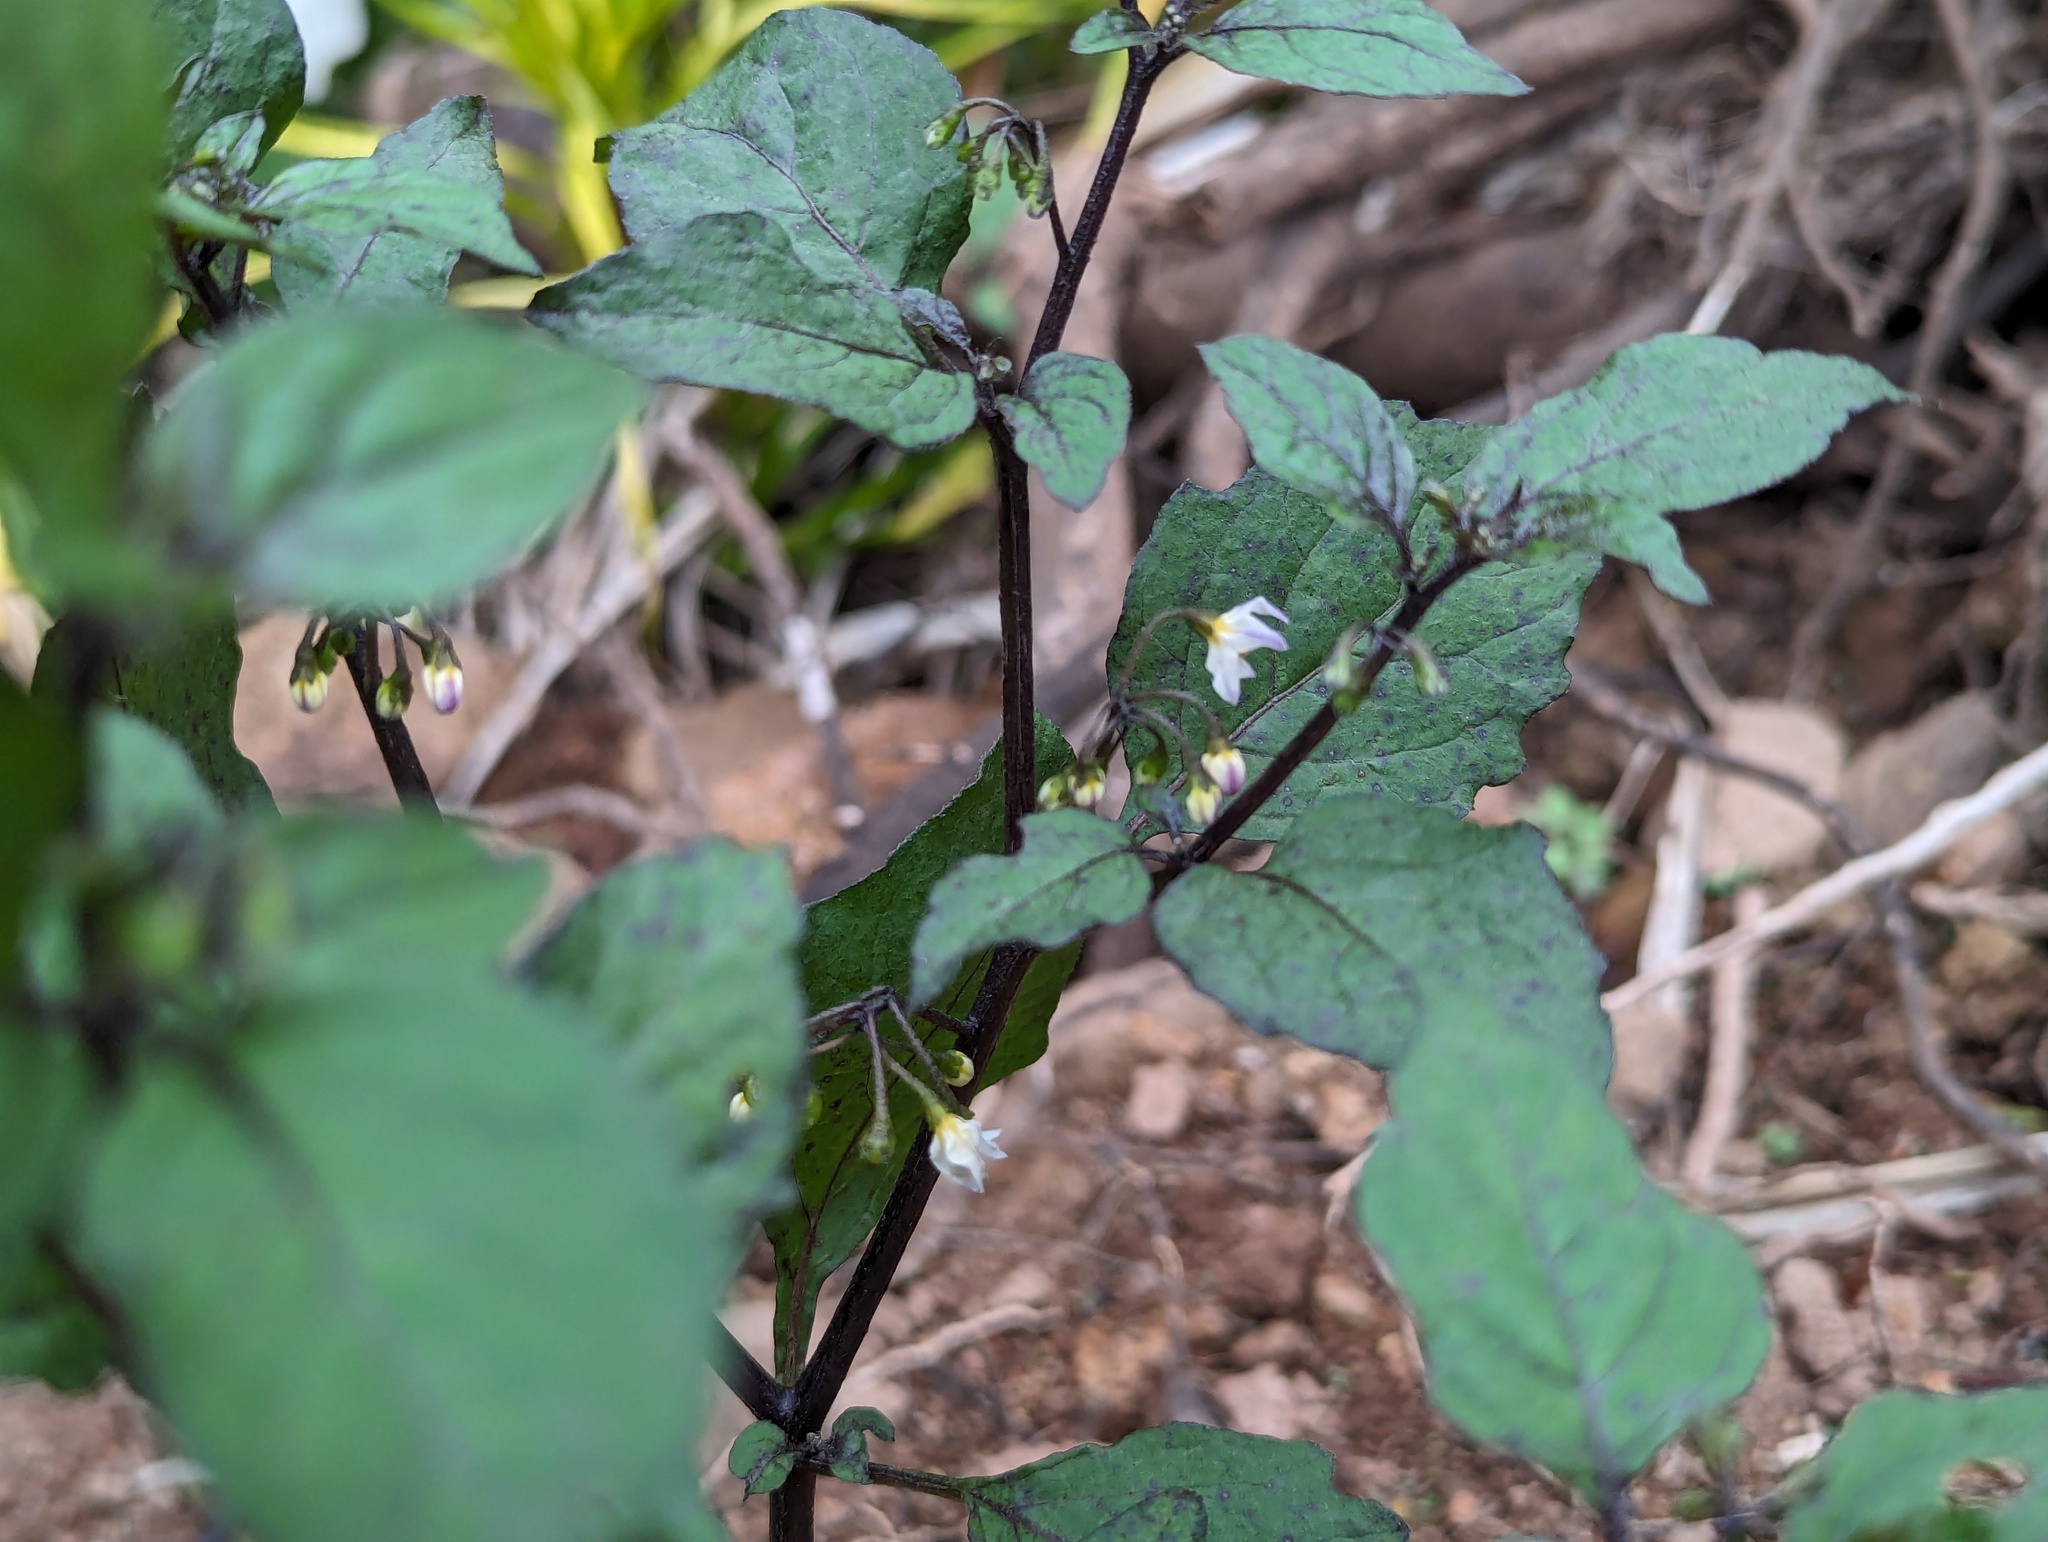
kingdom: Plantae
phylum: Tracheophyta
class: Magnoliopsida
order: Solanales
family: Solanaceae
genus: Solanum
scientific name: Solanum nigrum
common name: Black nightshade
